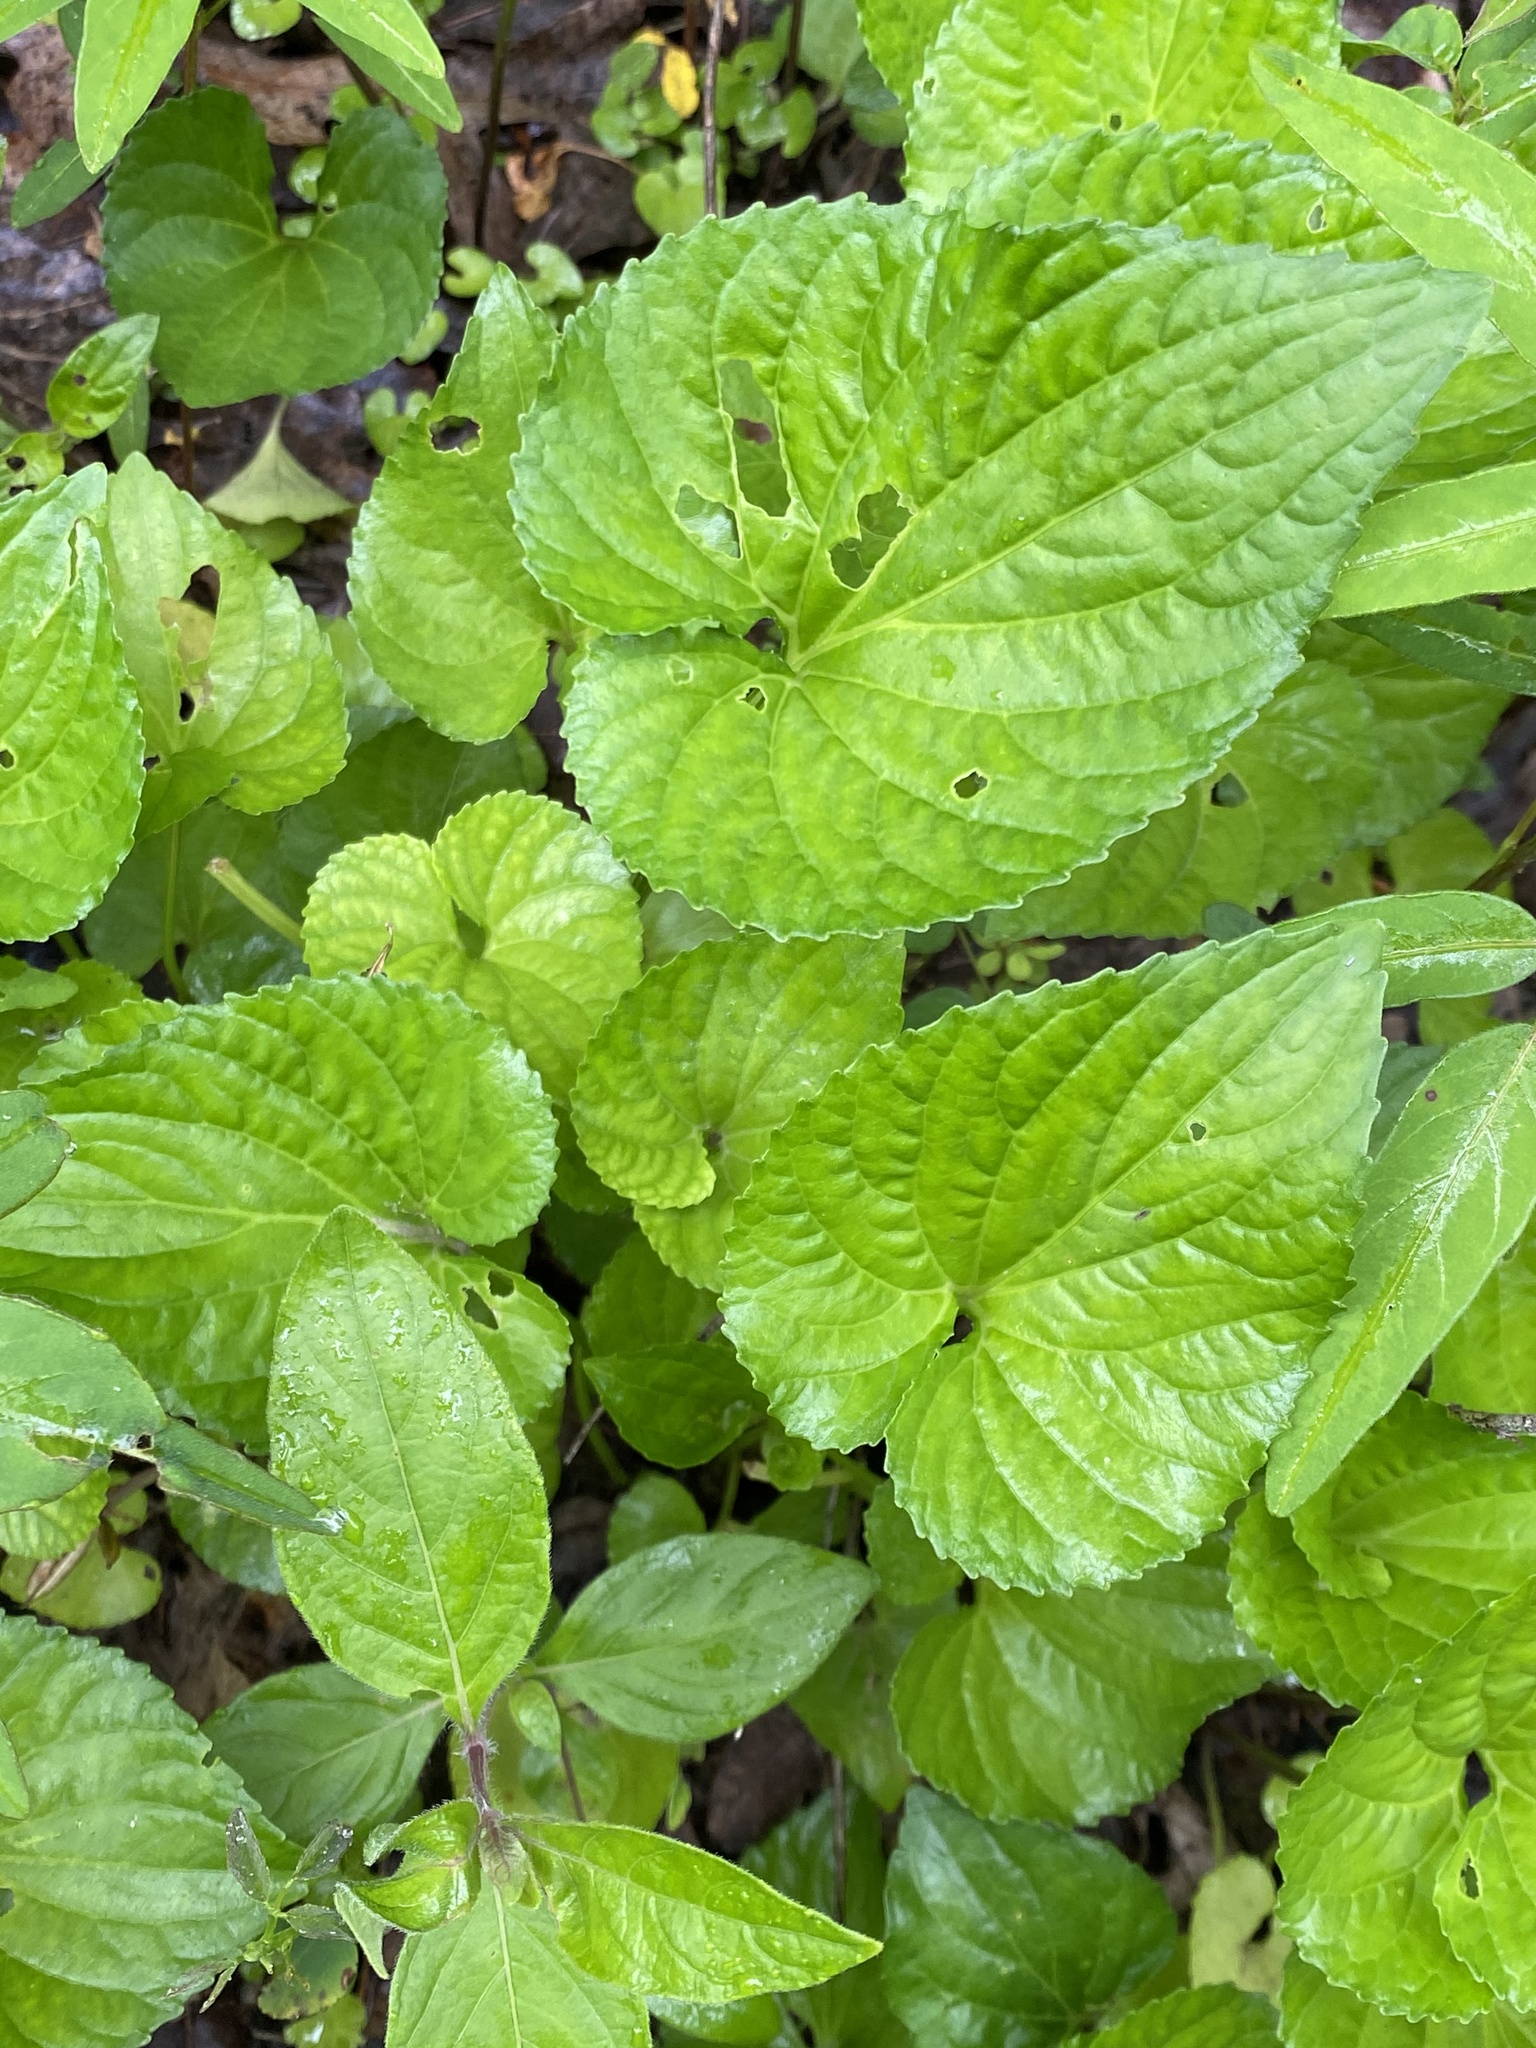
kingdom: Plantae
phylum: Tracheophyta
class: Magnoliopsida
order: Malpighiales
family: Violaceae
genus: Viola
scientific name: Viola sororia
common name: Dooryard violet
